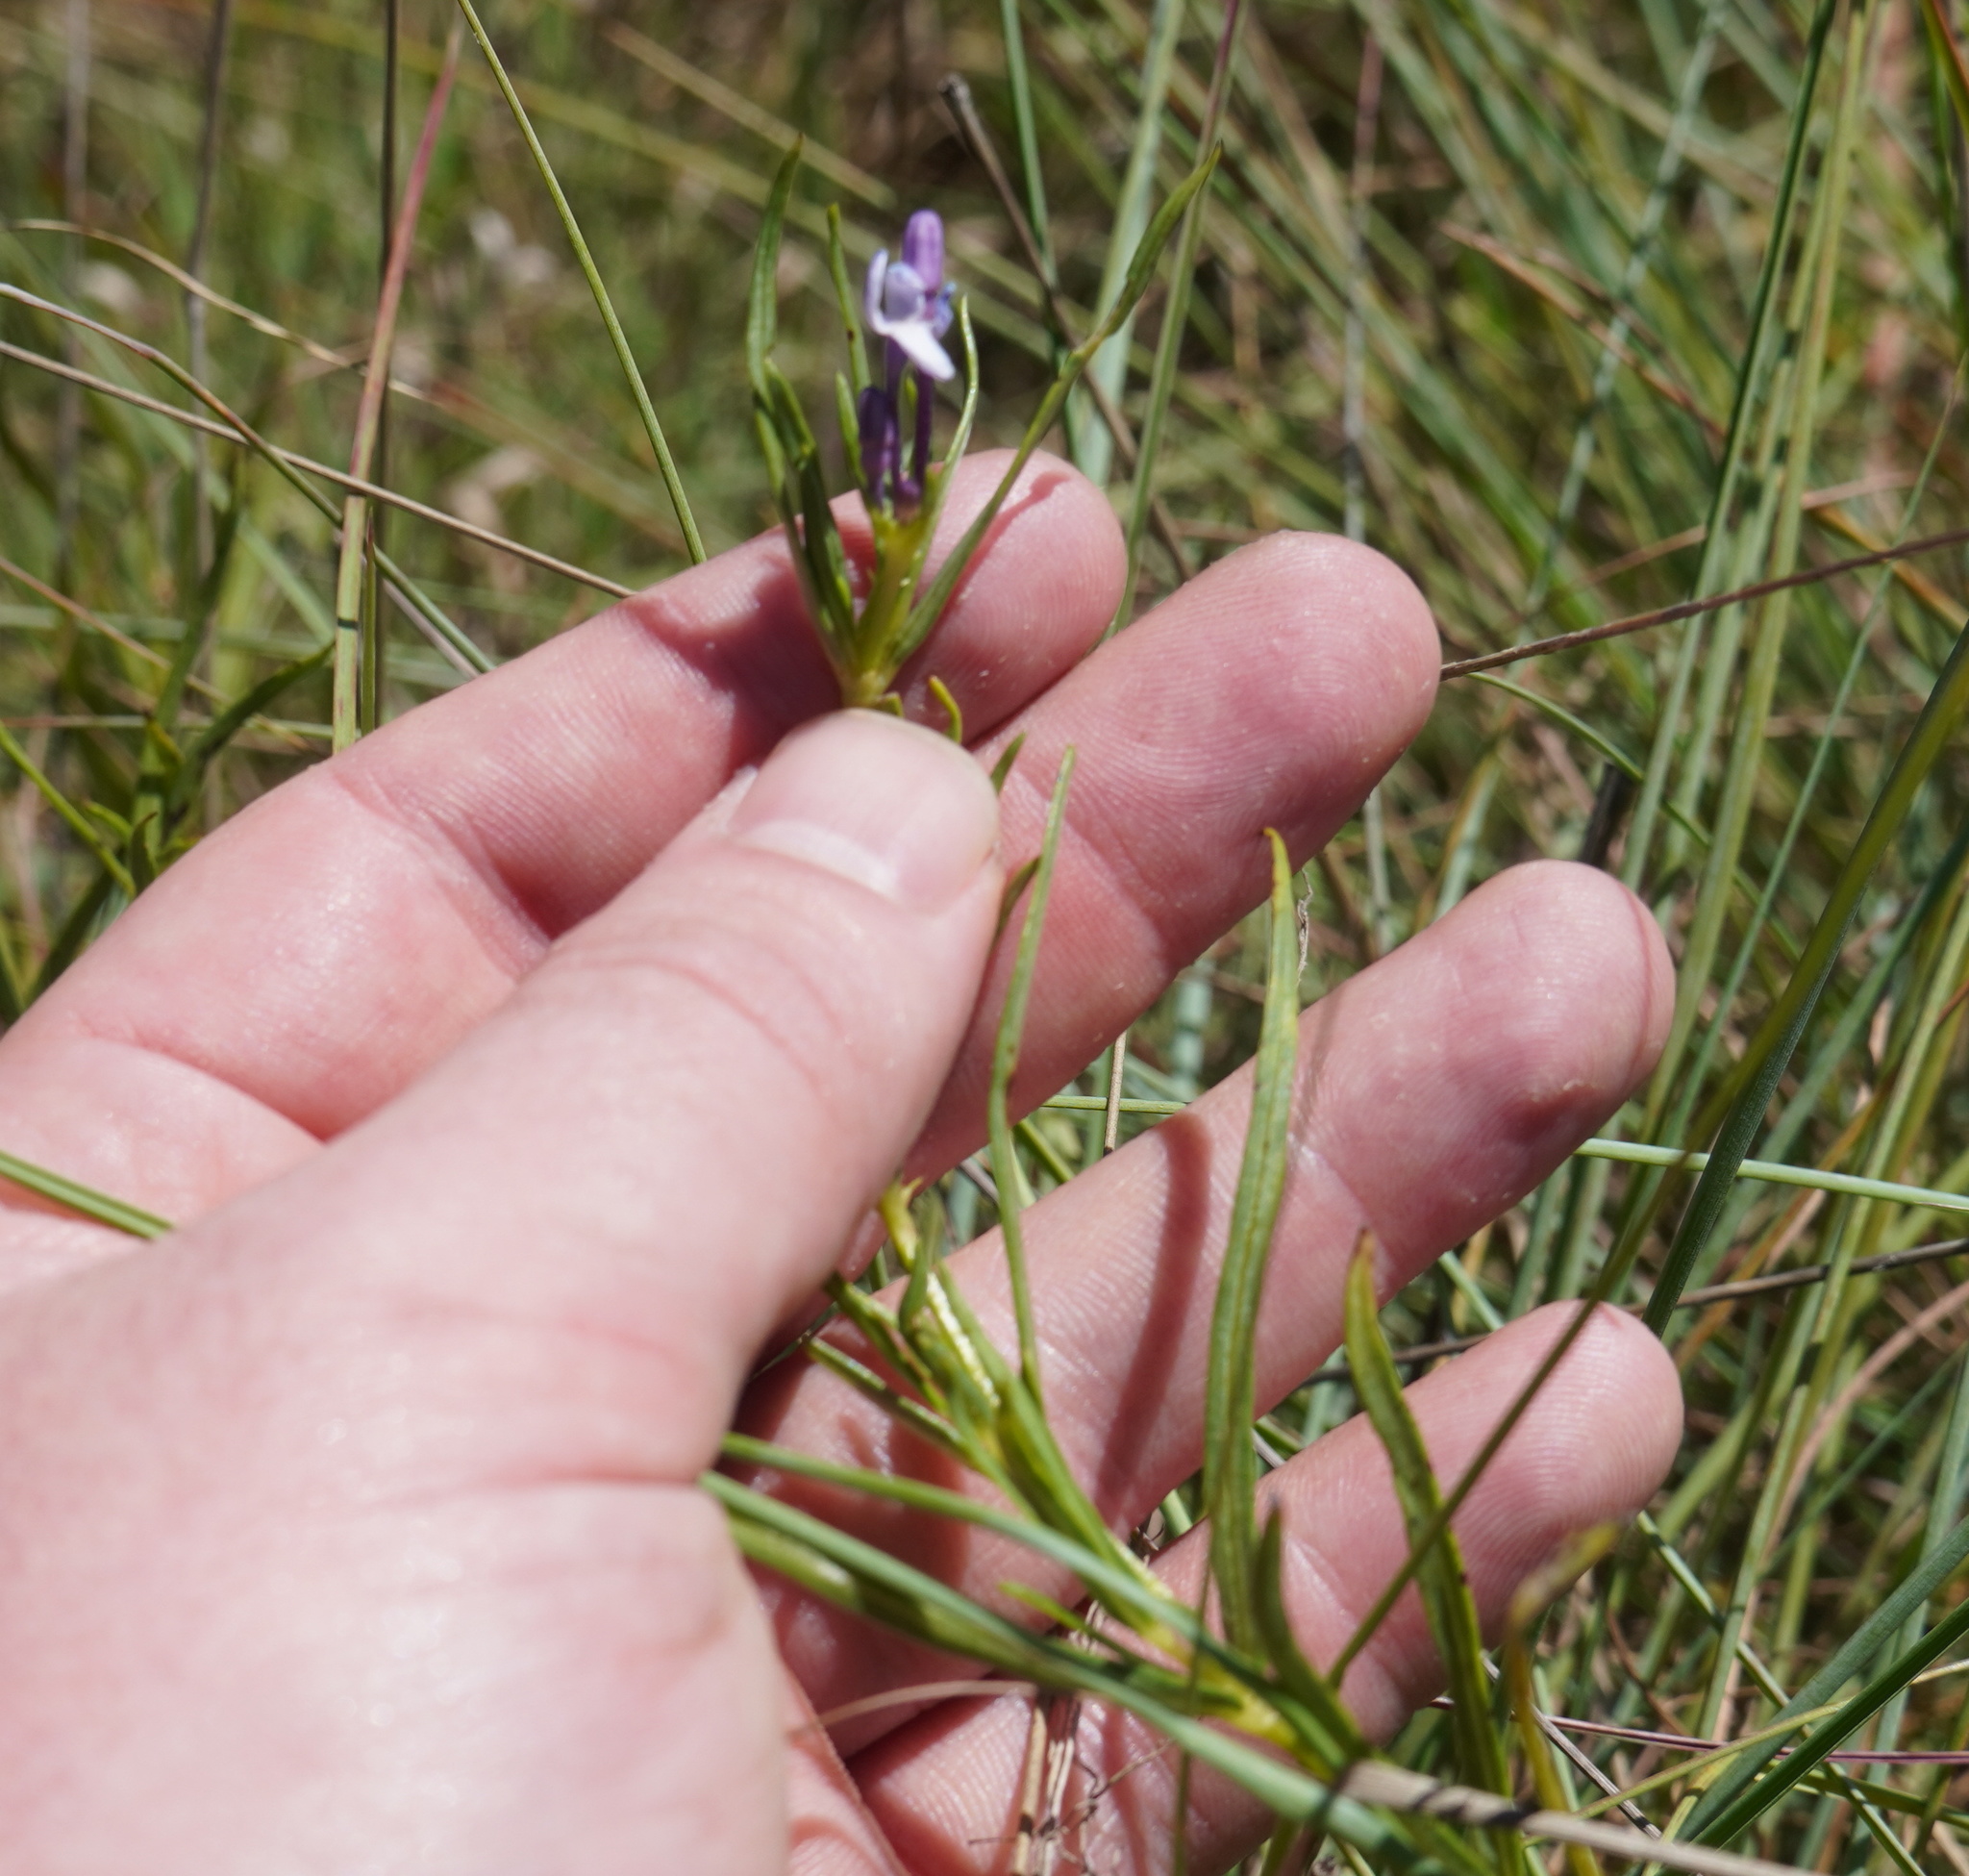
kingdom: Plantae
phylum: Tracheophyta
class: Magnoliopsida
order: Gentianales
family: Rubiaceae
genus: Pentanisia
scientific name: Pentanisia angustifolia
